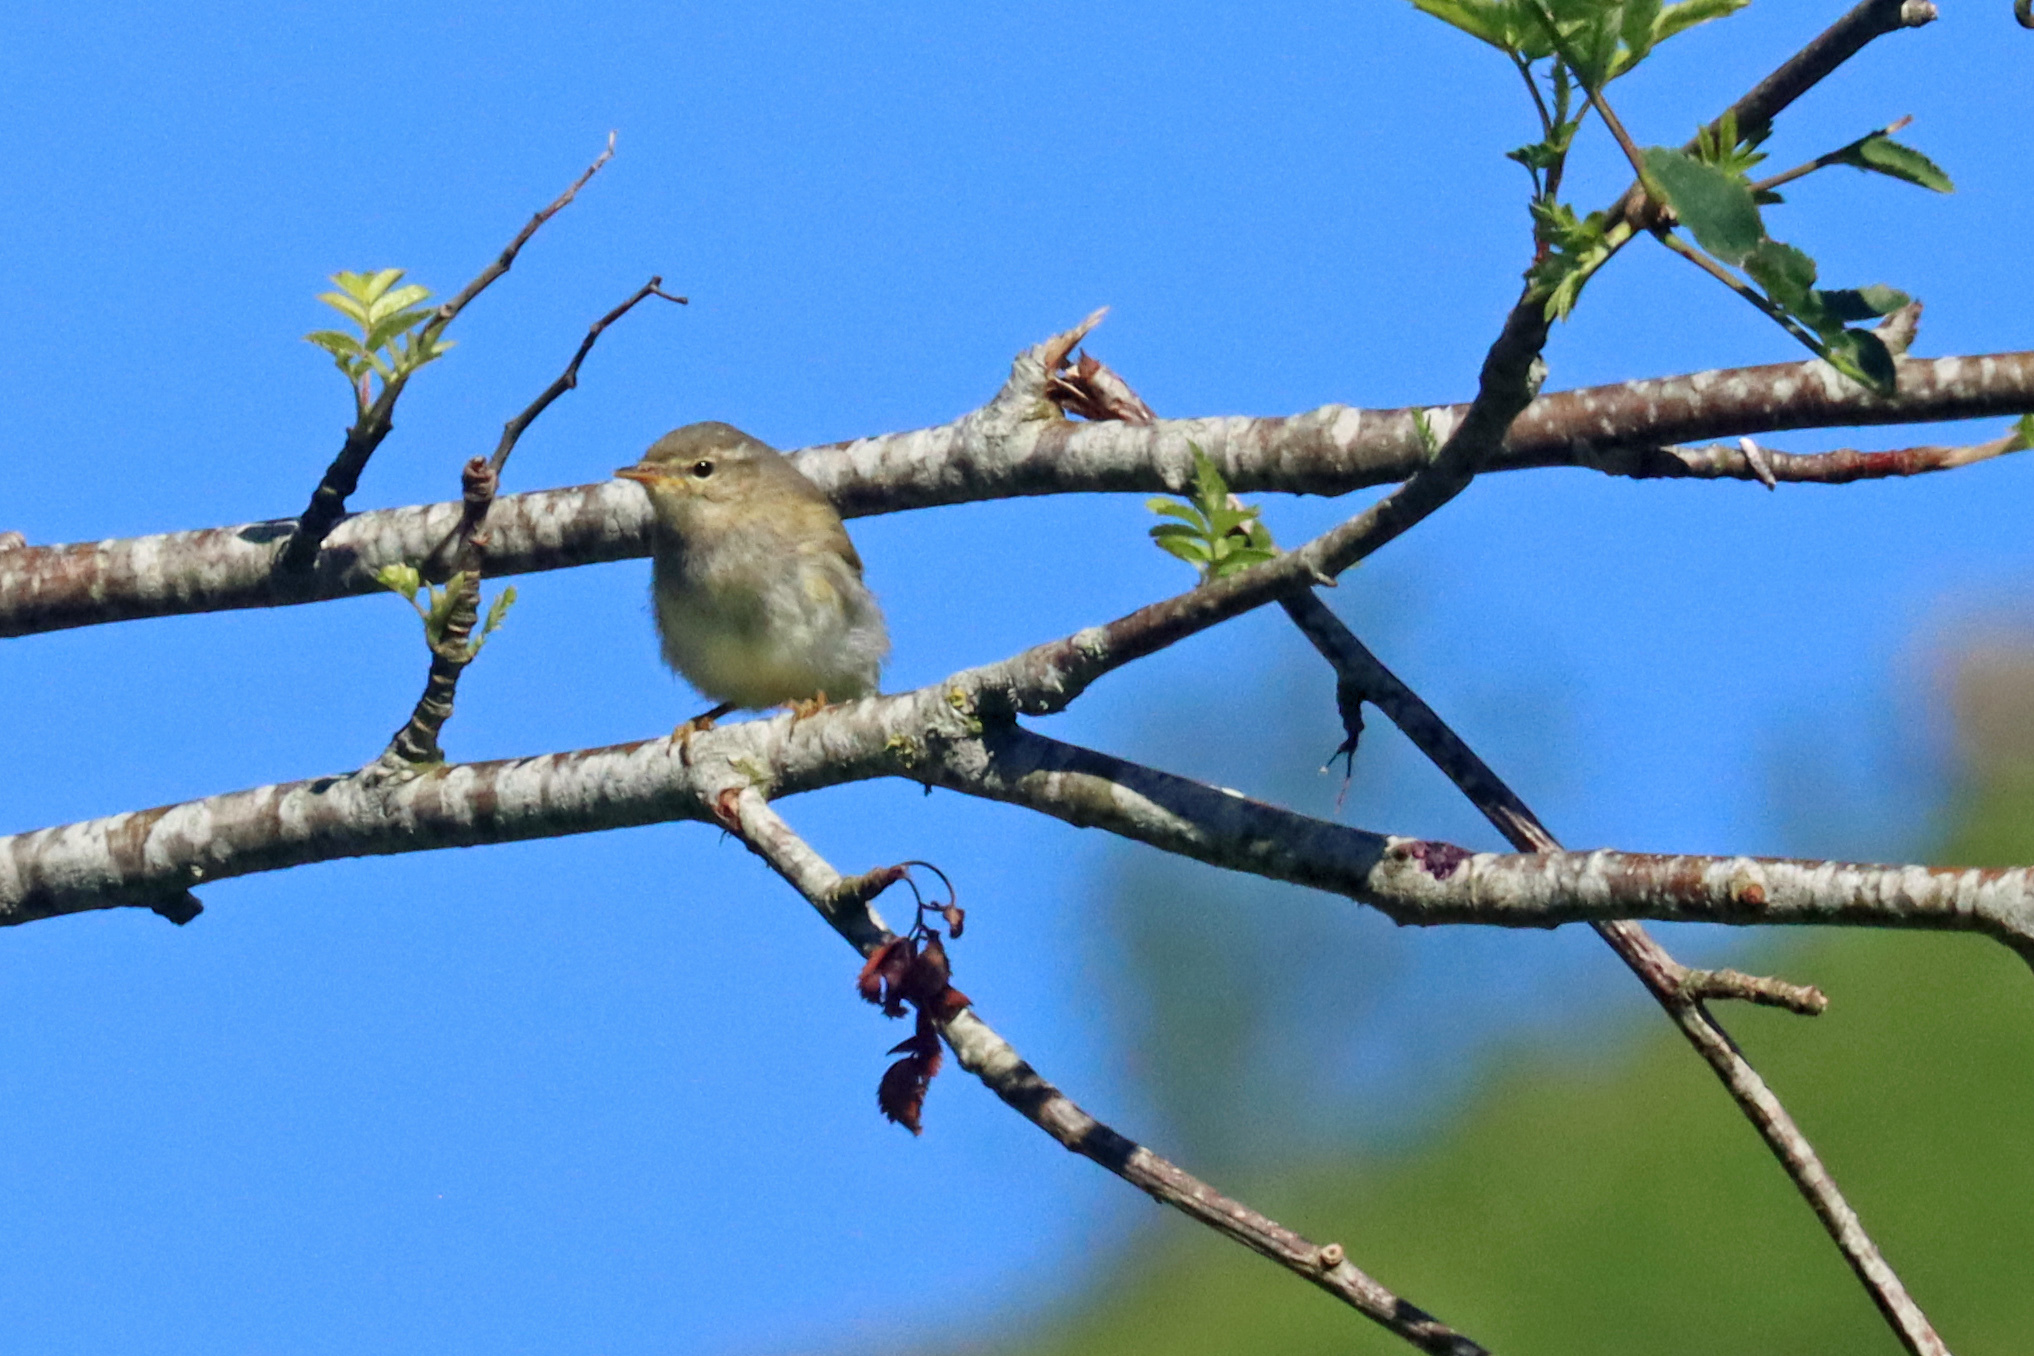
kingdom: Animalia
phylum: Chordata
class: Aves
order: Passeriformes
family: Phylloscopidae
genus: Phylloscopus
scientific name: Phylloscopus trochilus
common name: Willow warbler
